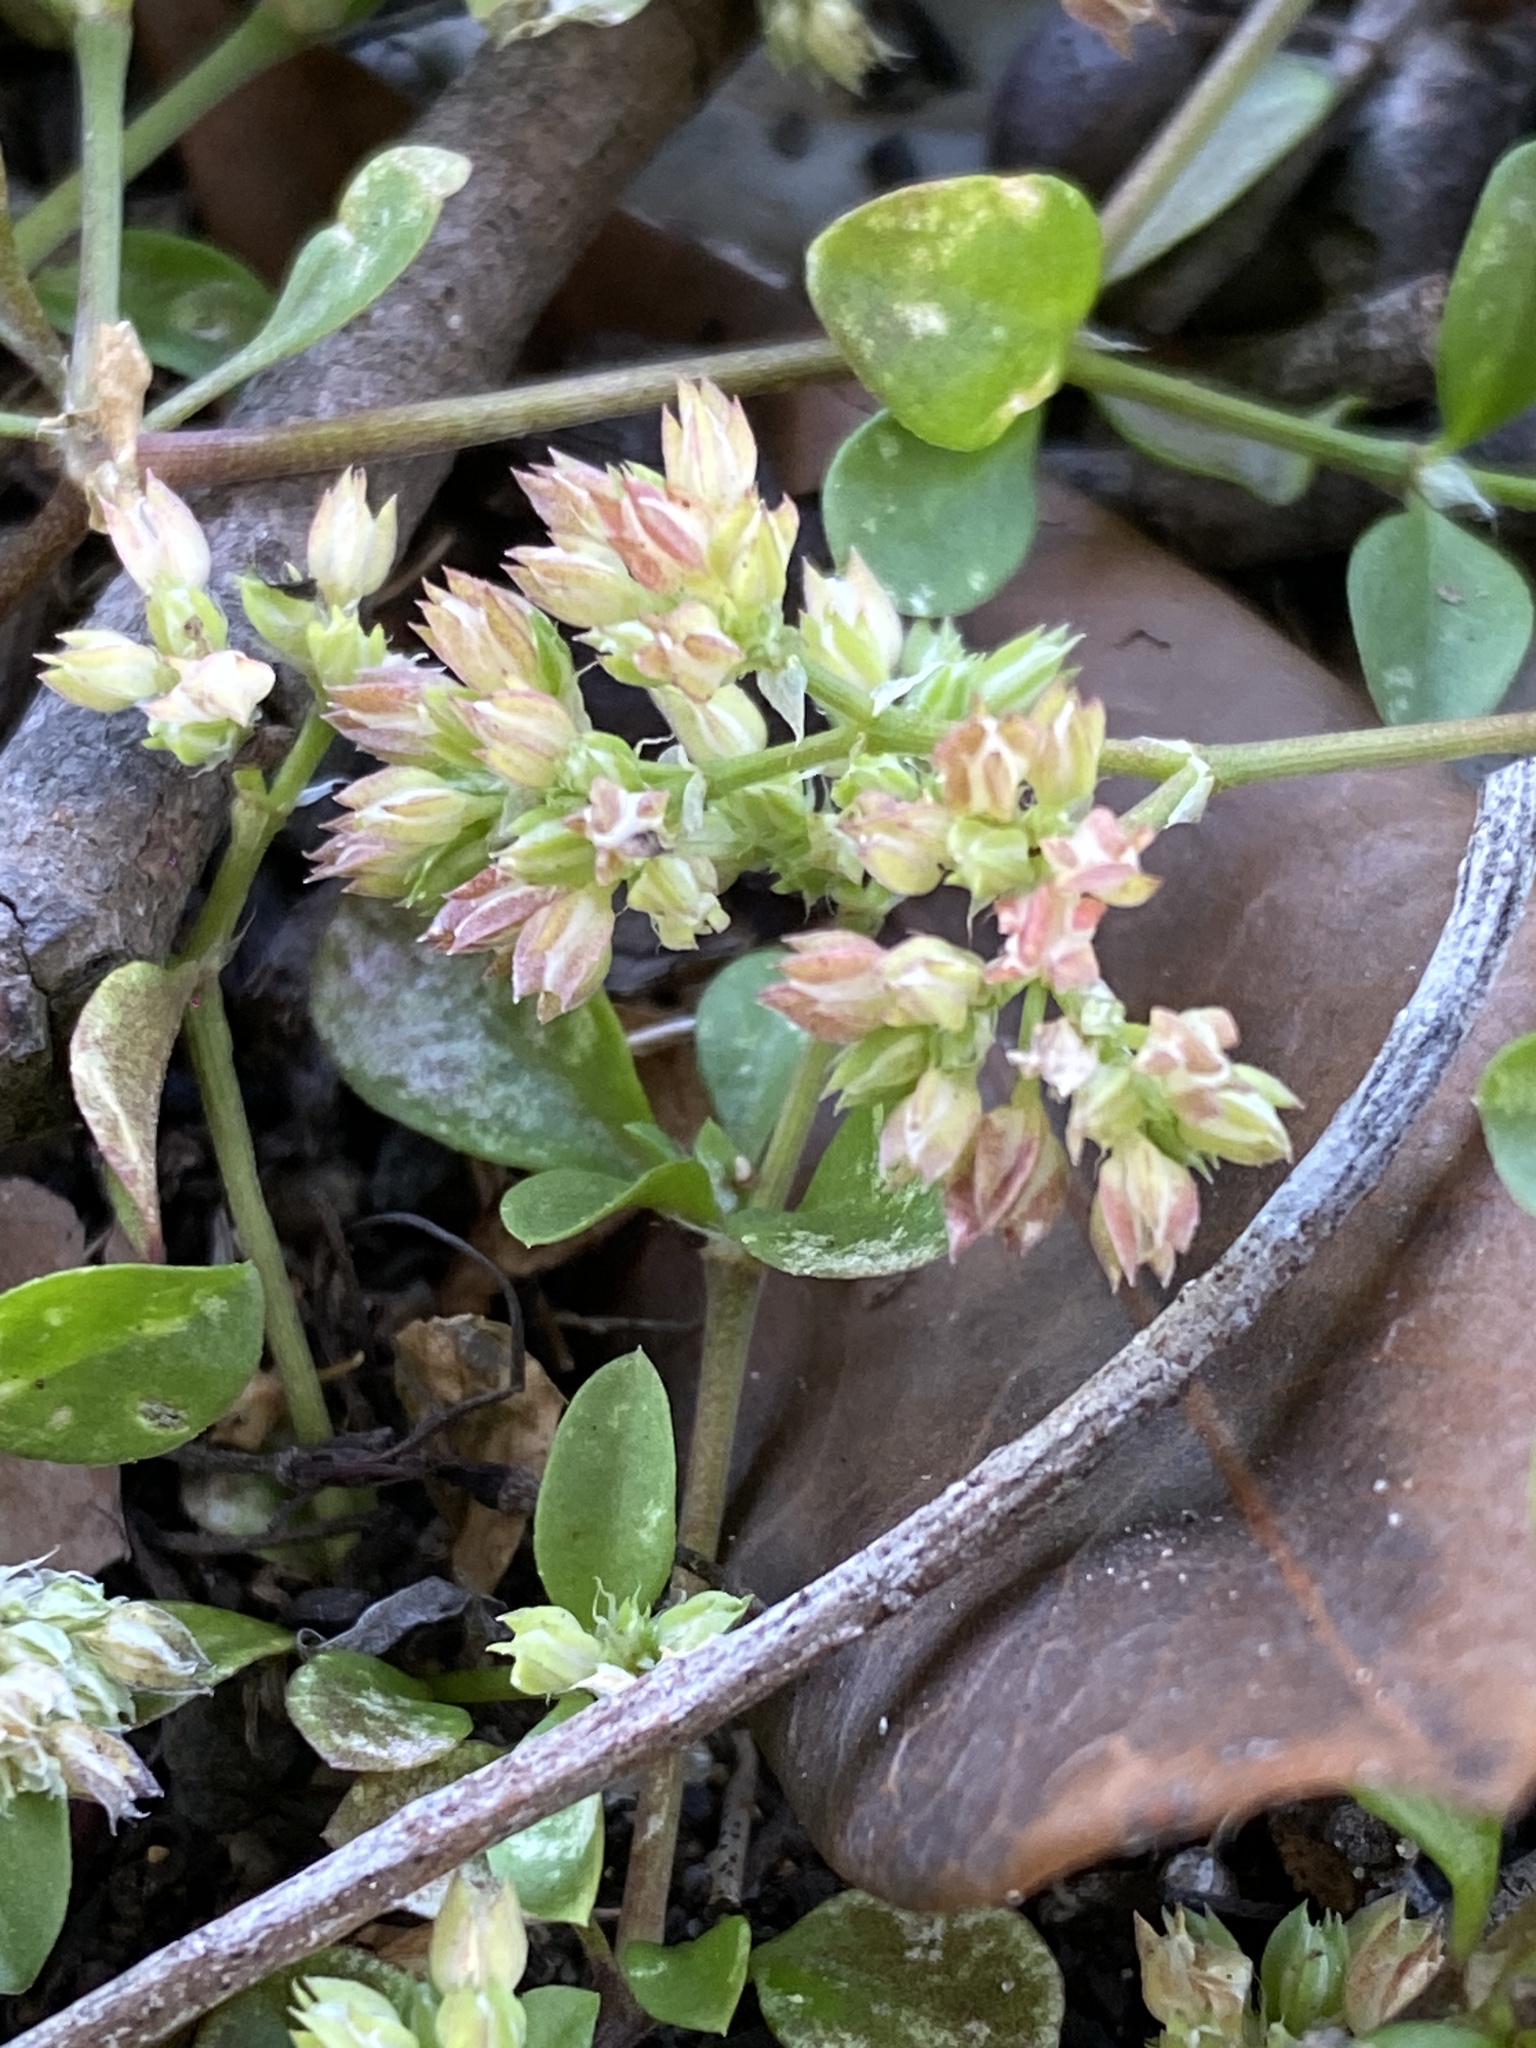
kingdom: Plantae
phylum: Tracheophyta
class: Magnoliopsida
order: Caryophyllales
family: Caryophyllaceae
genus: Polycarpon
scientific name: Polycarpon tetraphyllum
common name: Four-leaved all-seed
